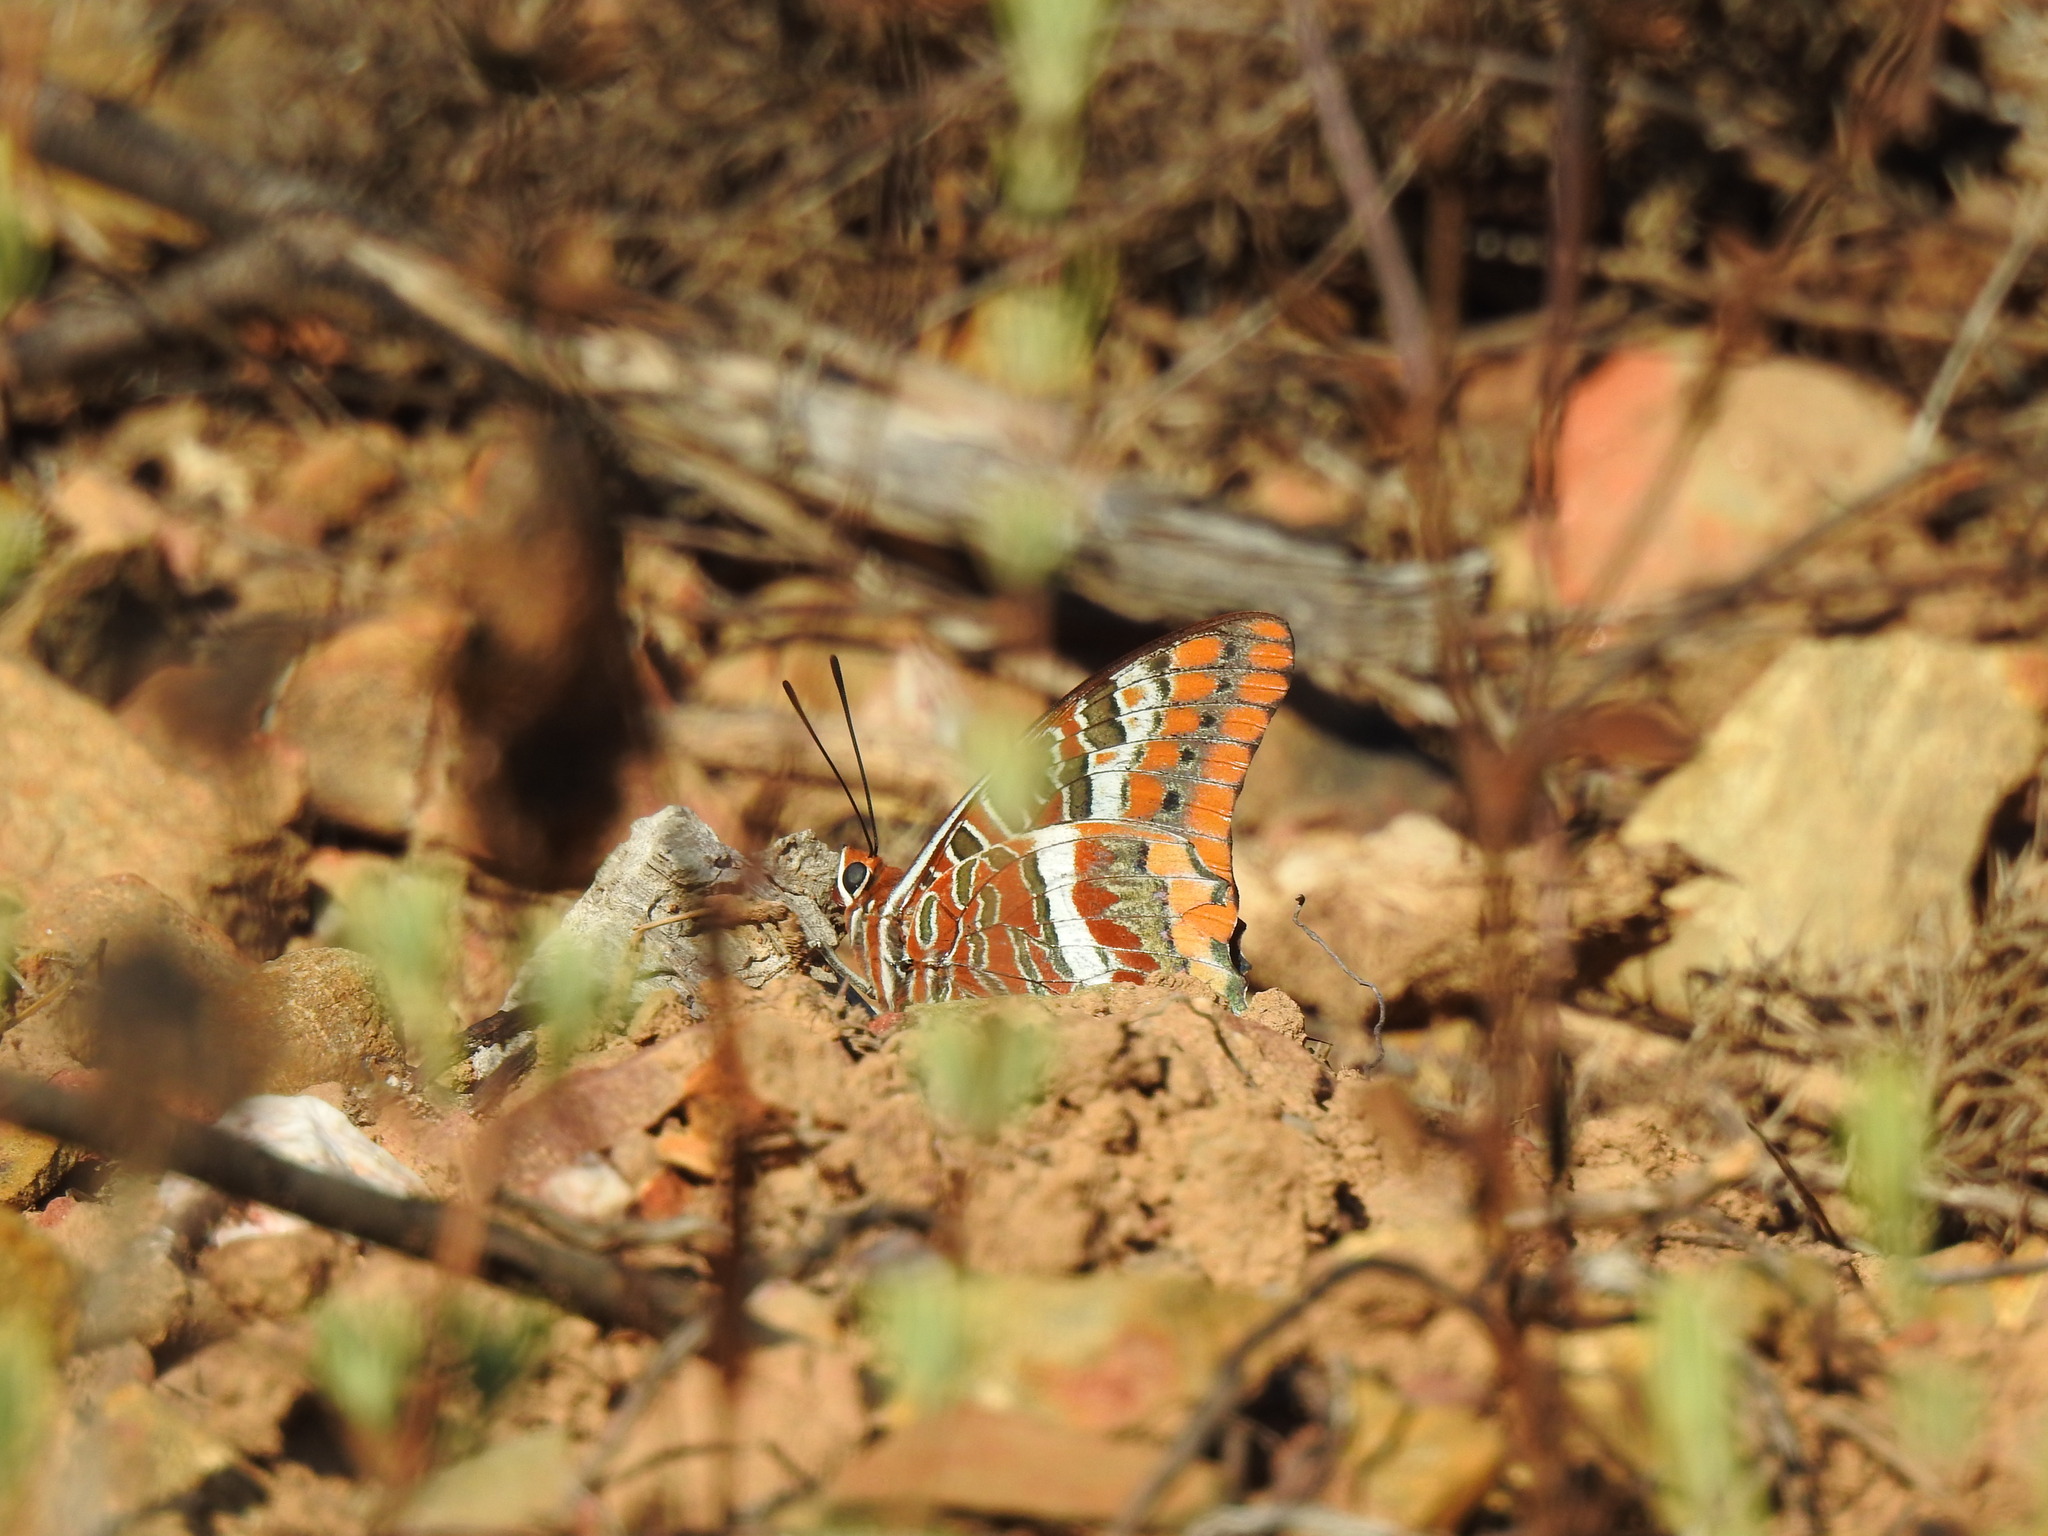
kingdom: Animalia
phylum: Arthropoda
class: Insecta
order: Lepidoptera
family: Nymphalidae
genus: Charaxes
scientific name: Charaxes jasius
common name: Two tailed pasha
